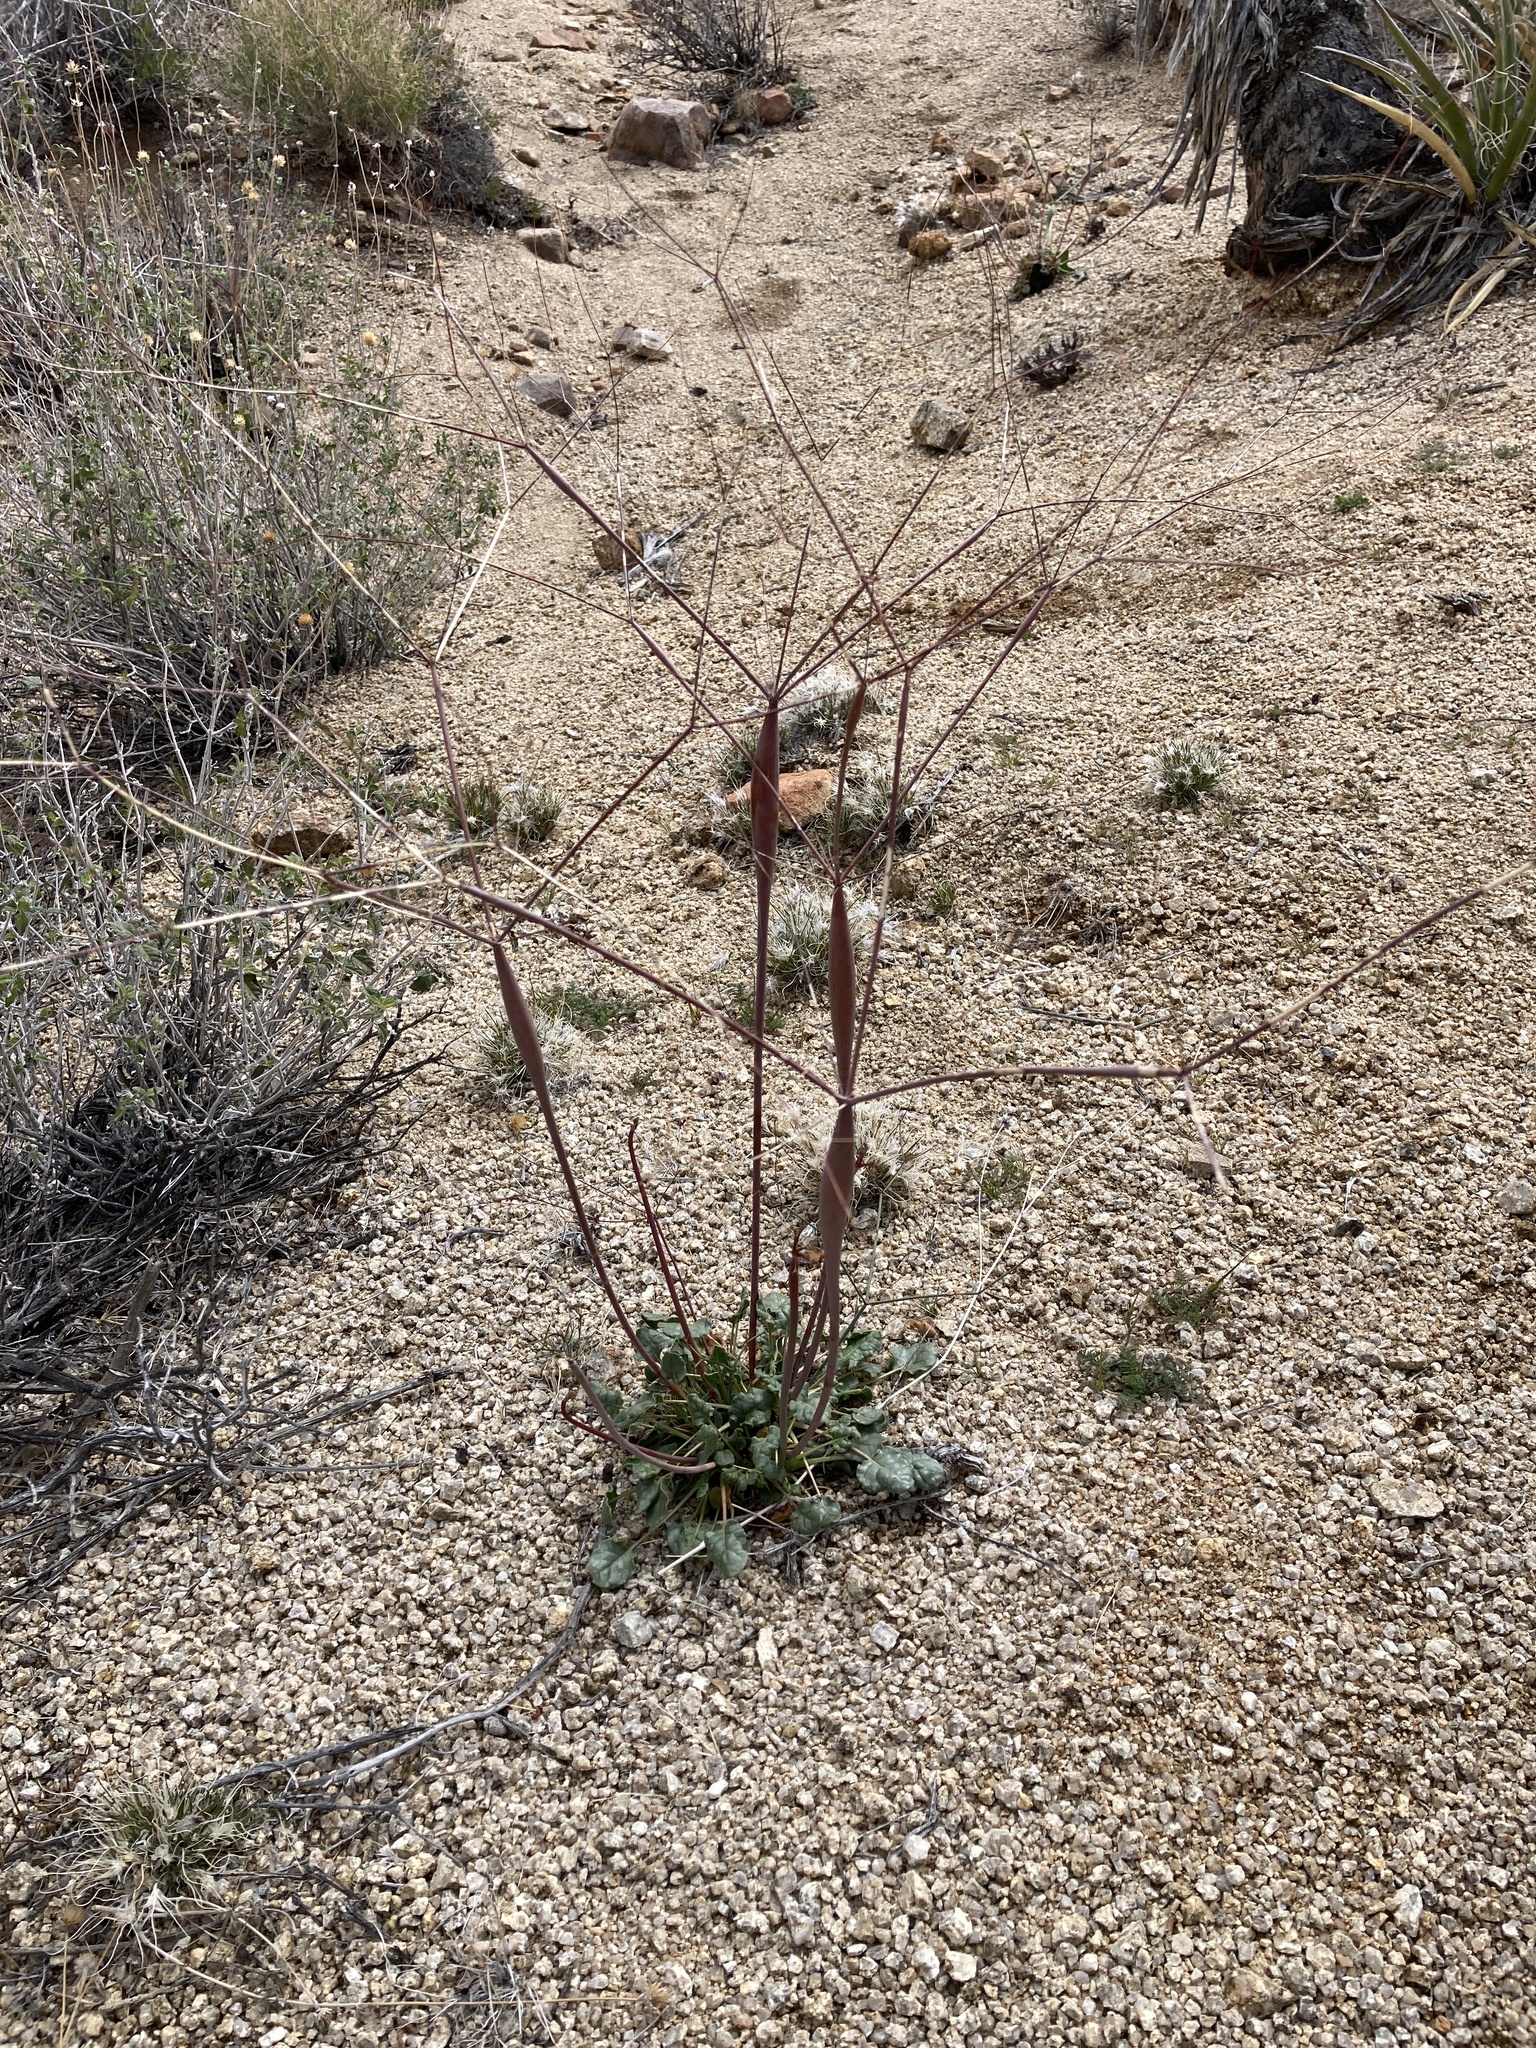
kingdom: Plantae
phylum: Tracheophyta
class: Magnoliopsida
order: Caryophyllales
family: Polygonaceae
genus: Eriogonum
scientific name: Eriogonum inflatum
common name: Desert trumpet
